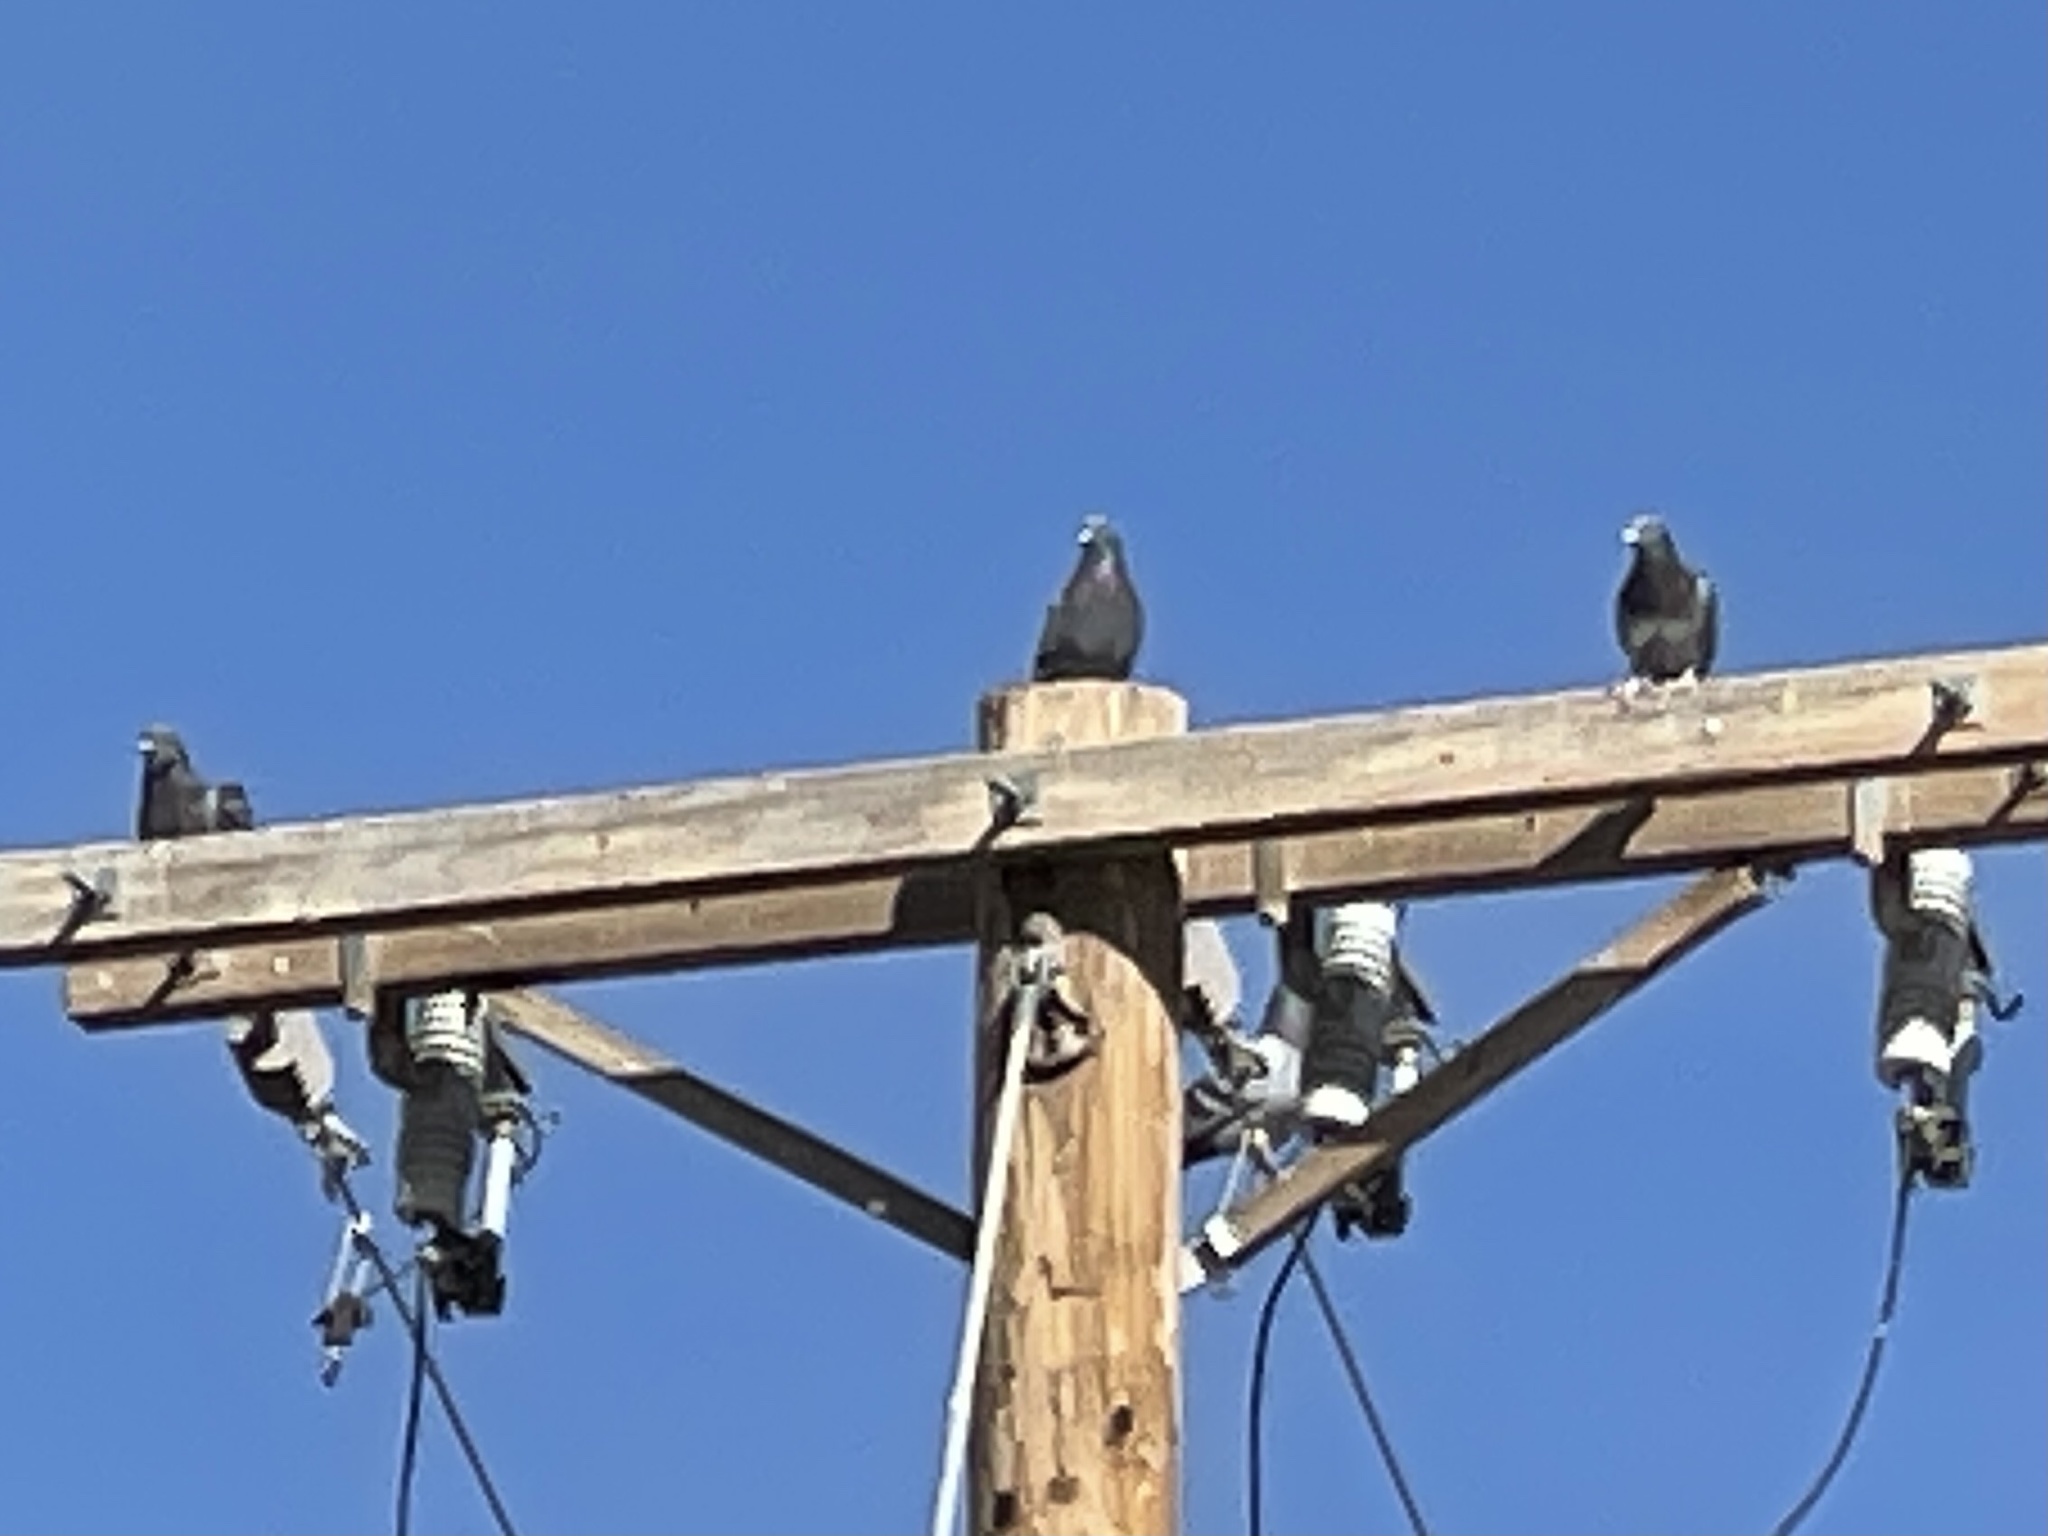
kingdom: Animalia
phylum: Chordata
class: Aves
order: Columbiformes
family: Columbidae
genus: Columba
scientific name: Columba livia
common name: Rock pigeon
